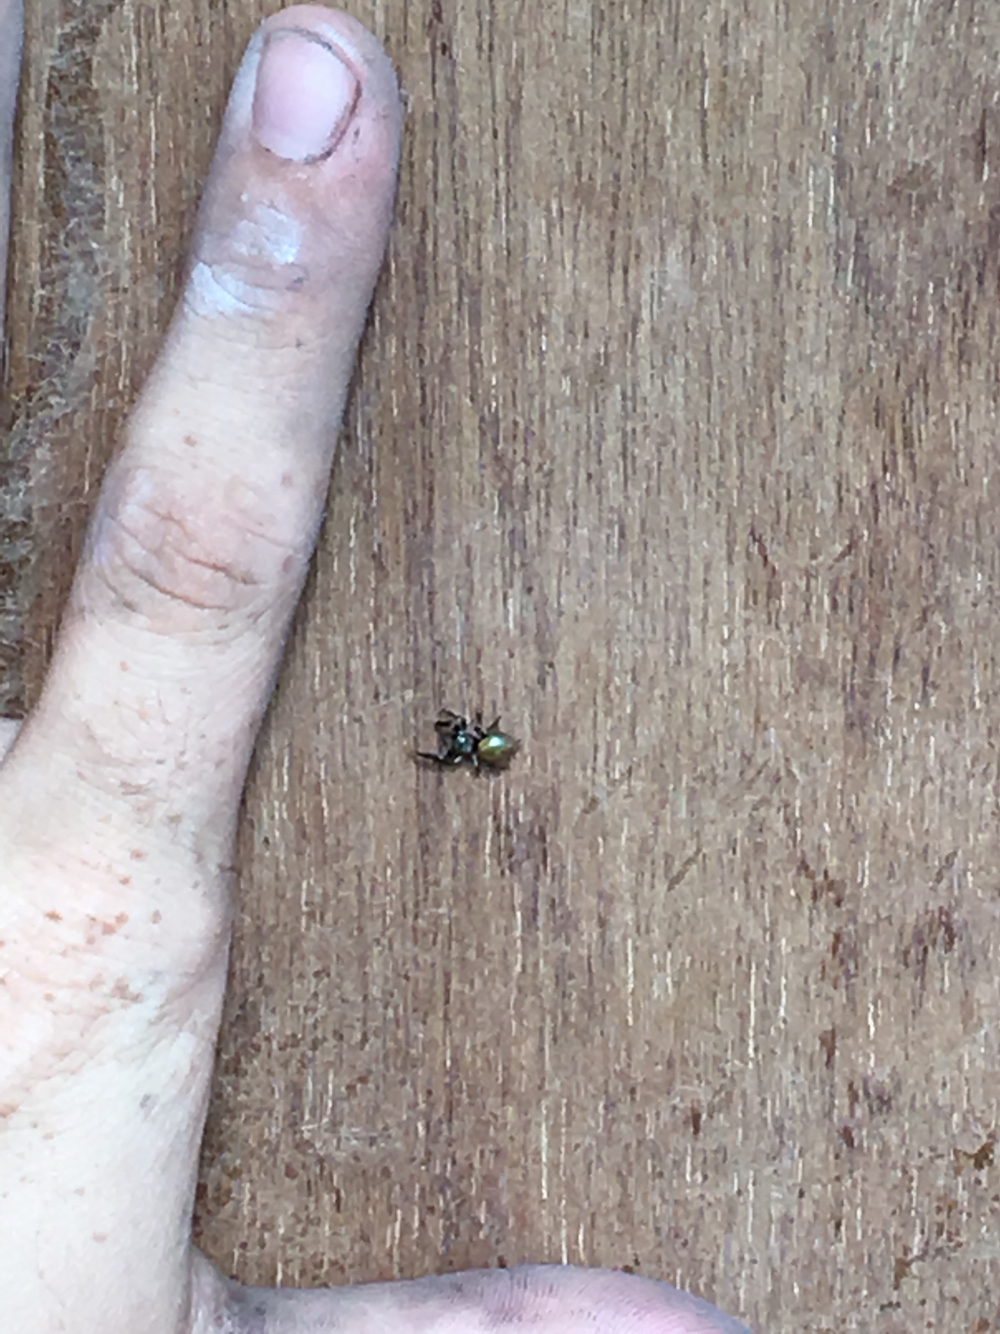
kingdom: Animalia
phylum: Arthropoda
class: Arachnida
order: Araneae
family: Salticidae
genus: Messua
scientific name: Messua limbata
